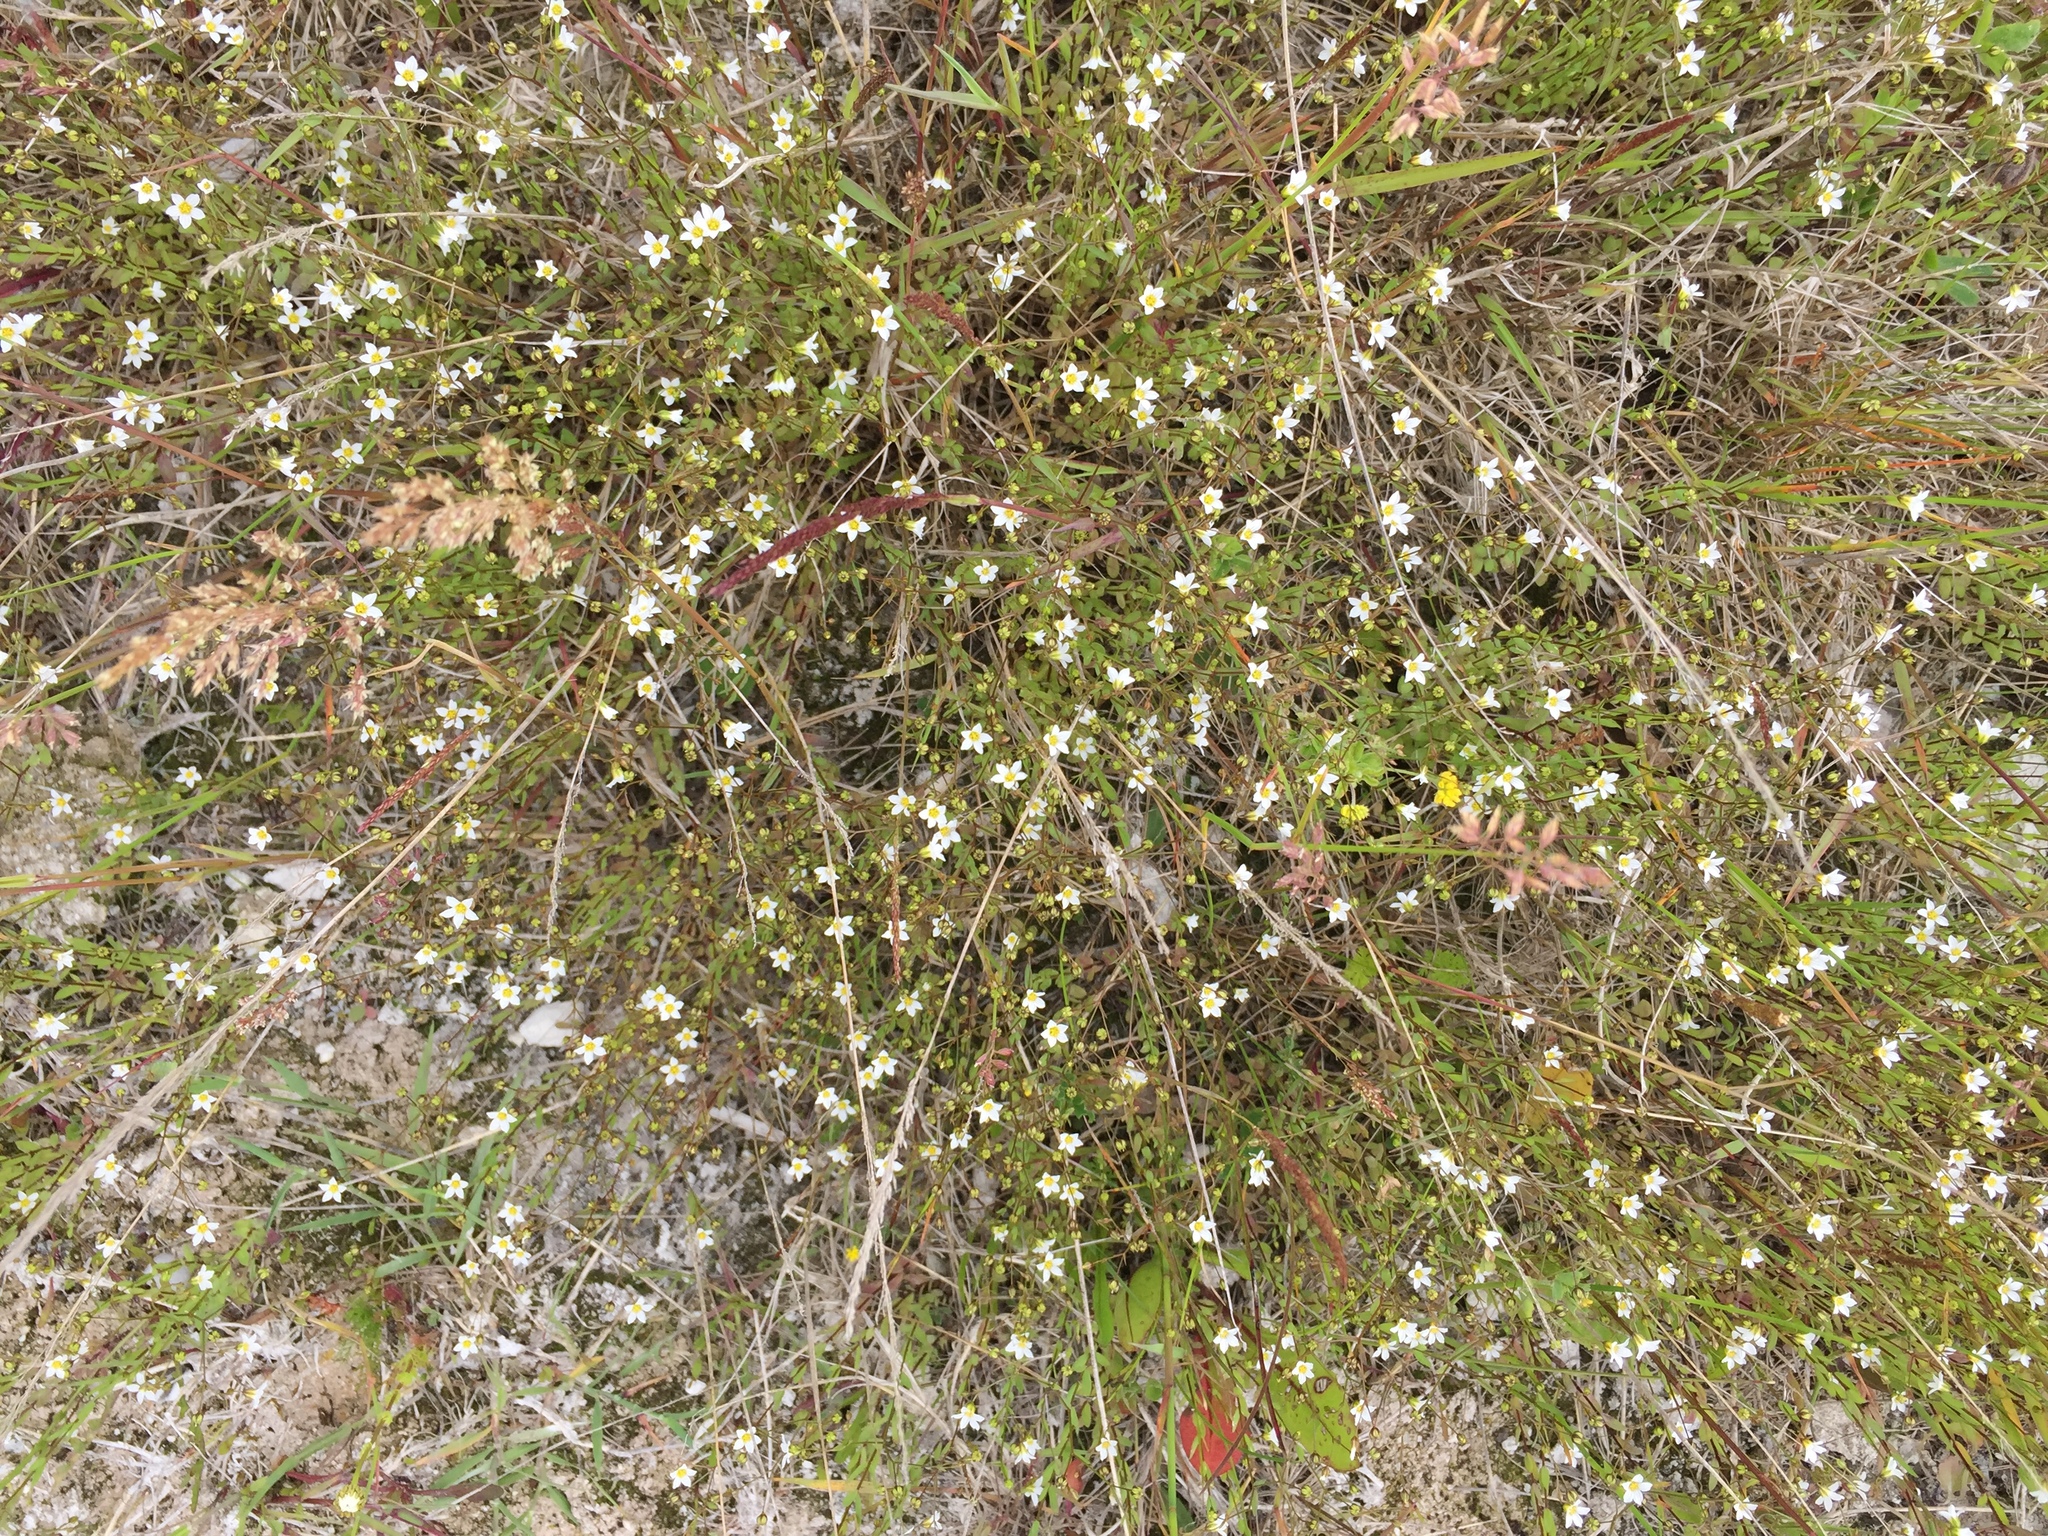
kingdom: Plantae
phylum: Tracheophyta
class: Magnoliopsida
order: Malpighiales
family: Linaceae
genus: Linum
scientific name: Linum catharticum
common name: Fairy flax
